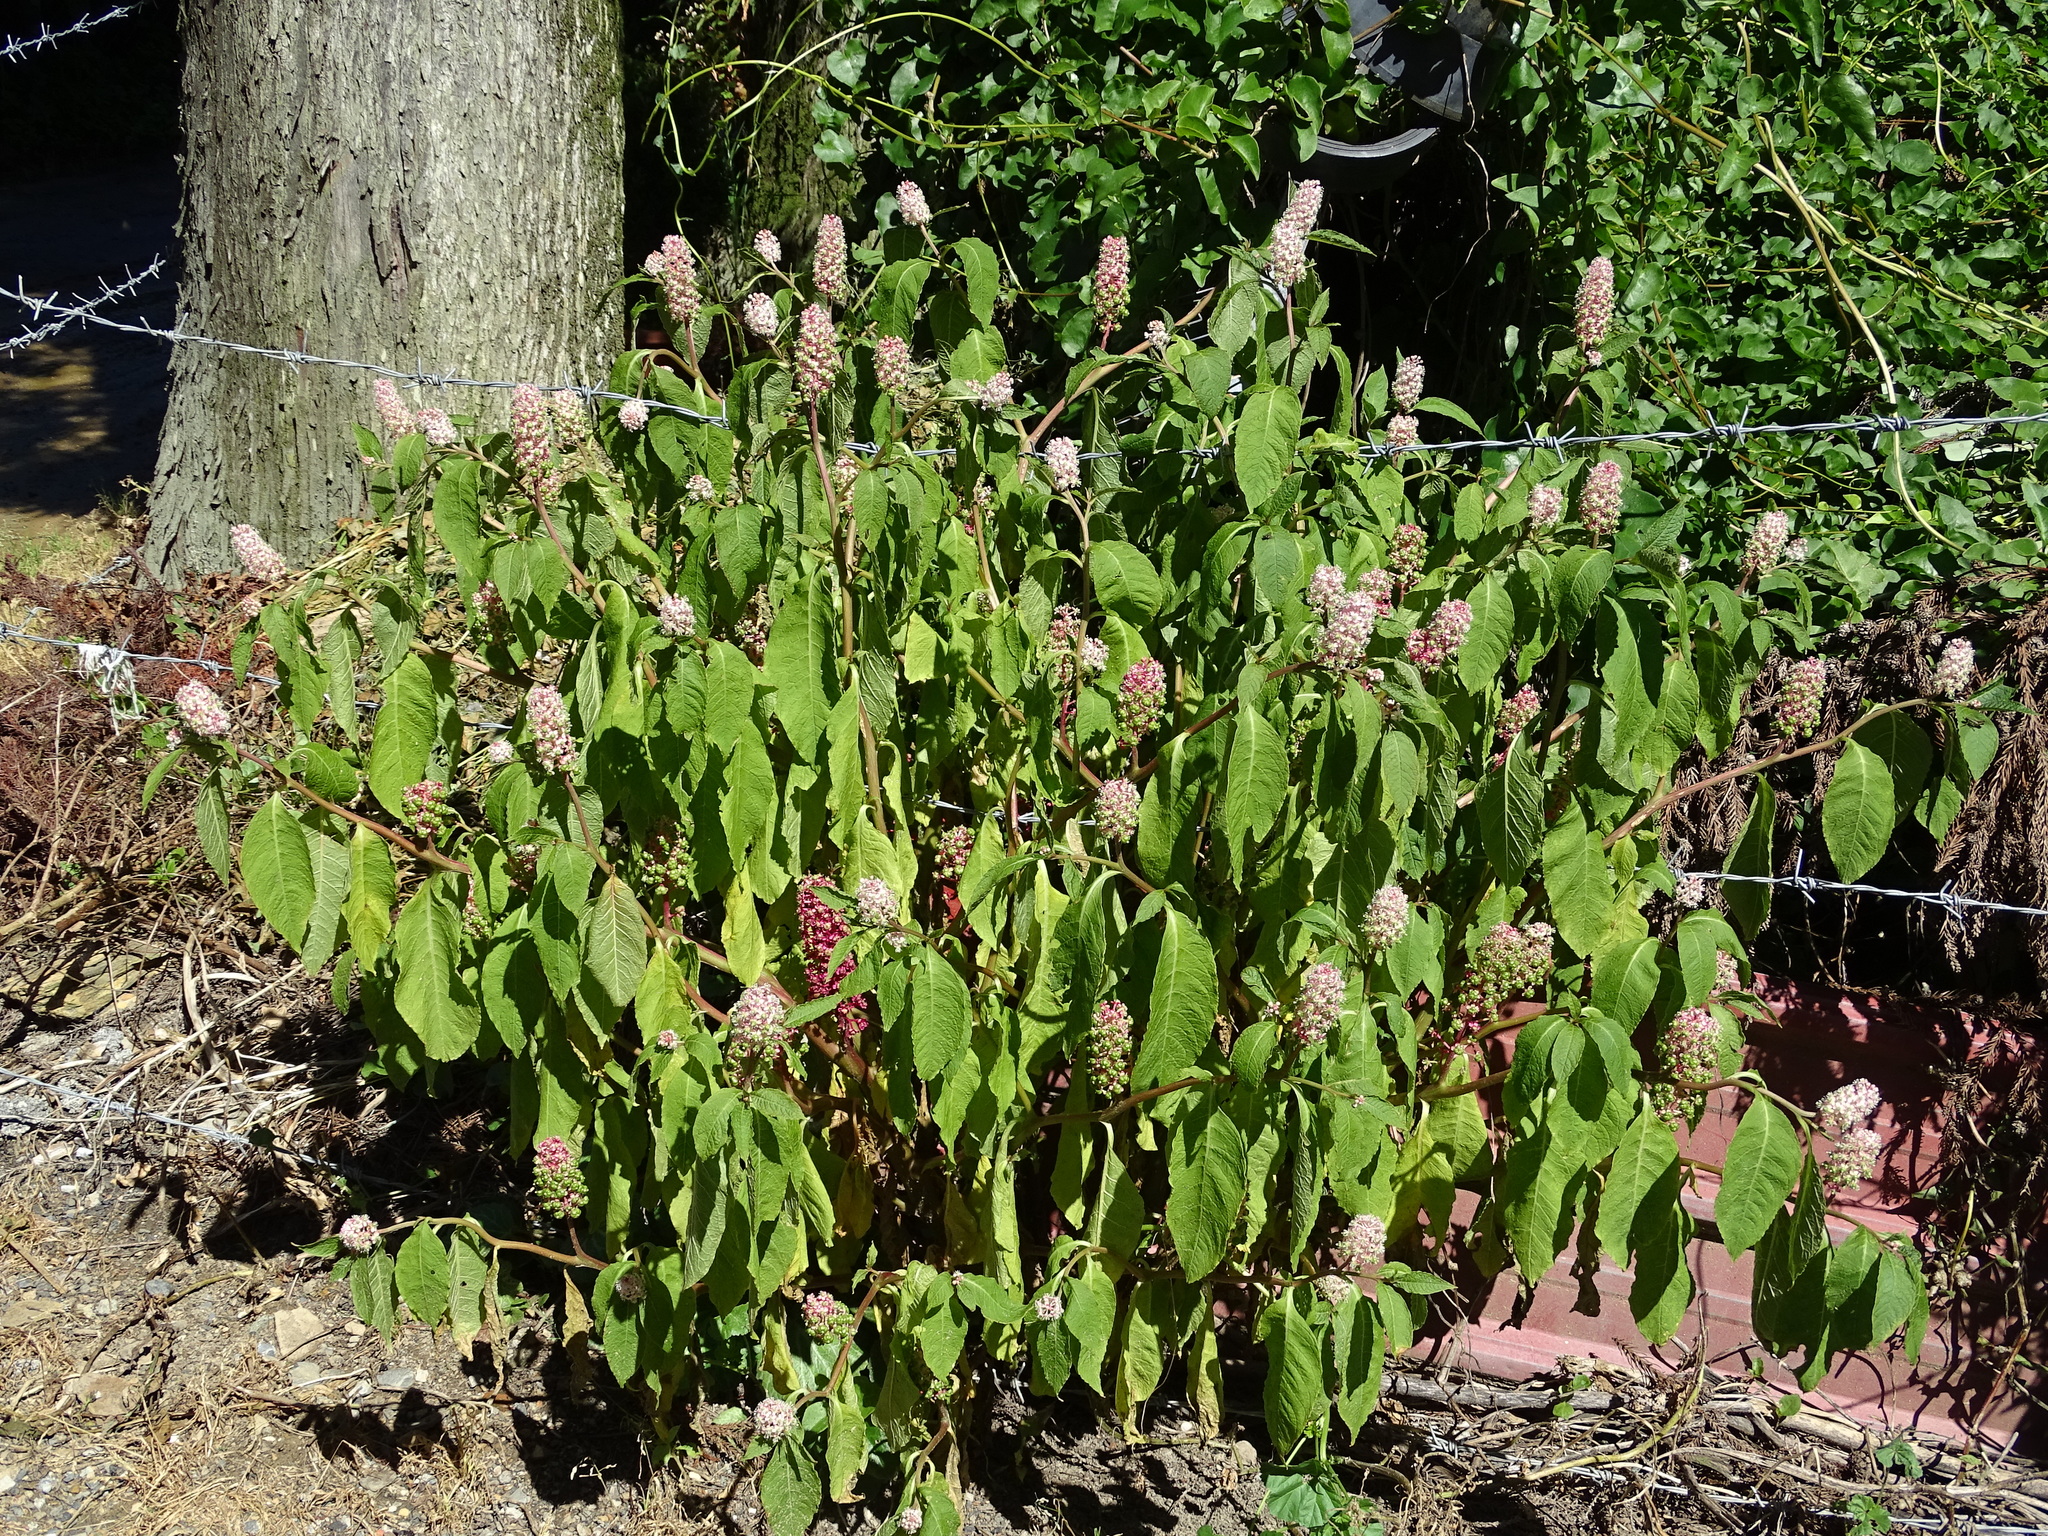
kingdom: Plantae
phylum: Tracheophyta
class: Magnoliopsida
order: Caryophyllales
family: Phytolaccaceae
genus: Phytolacca
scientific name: Phytolacca japonica
